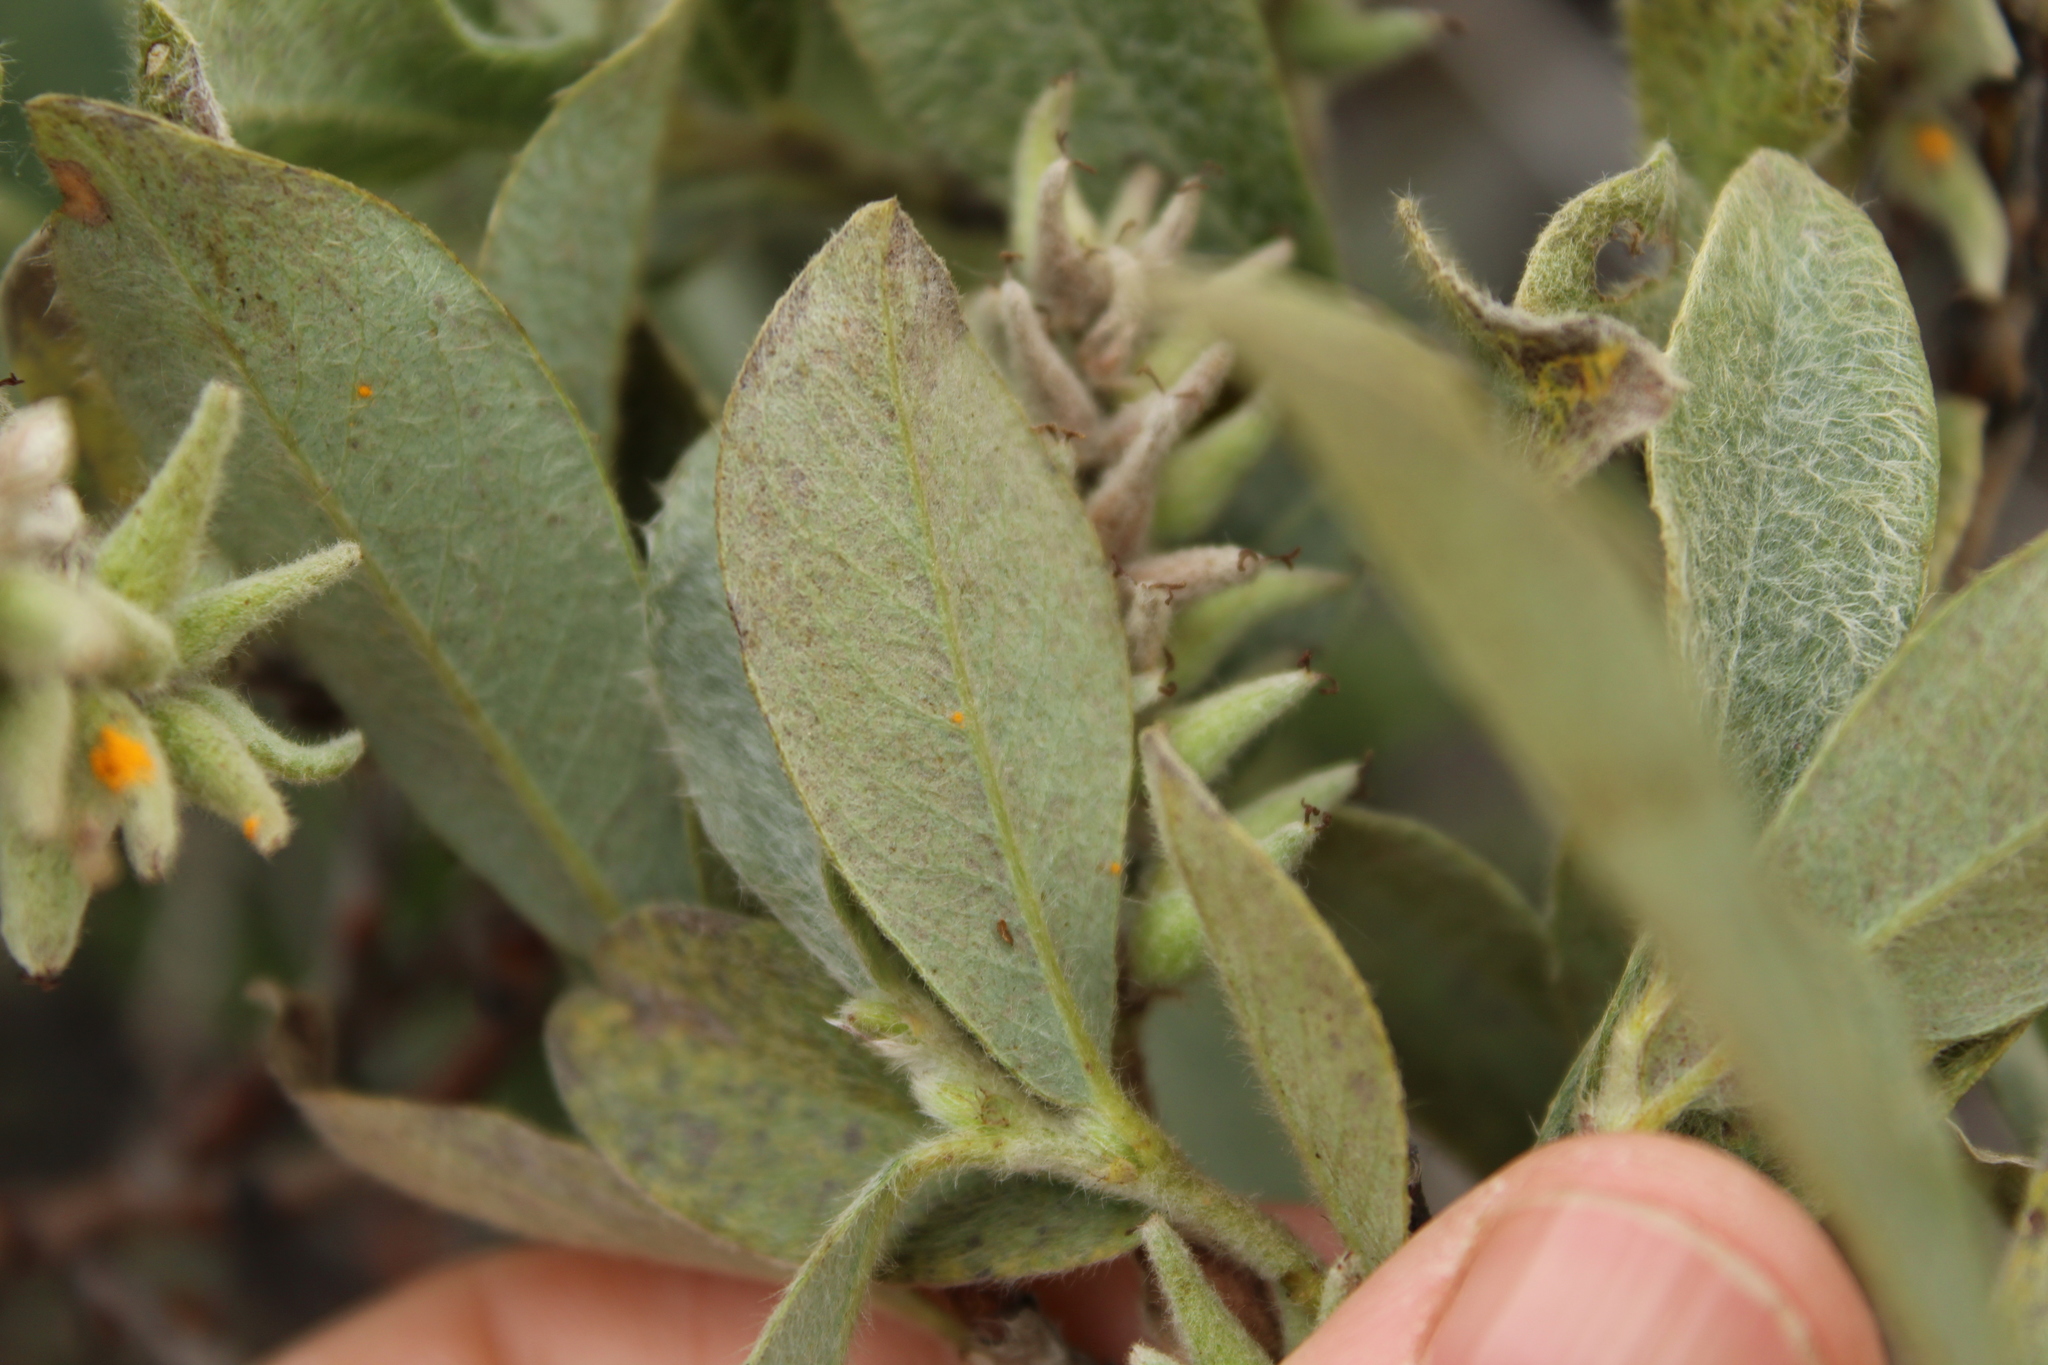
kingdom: Plantae
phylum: Tracheophyta
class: Magnoliopsida
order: Malpighiales
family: Salicaceae
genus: Salix
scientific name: Salix glauca
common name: Glaucous willow
